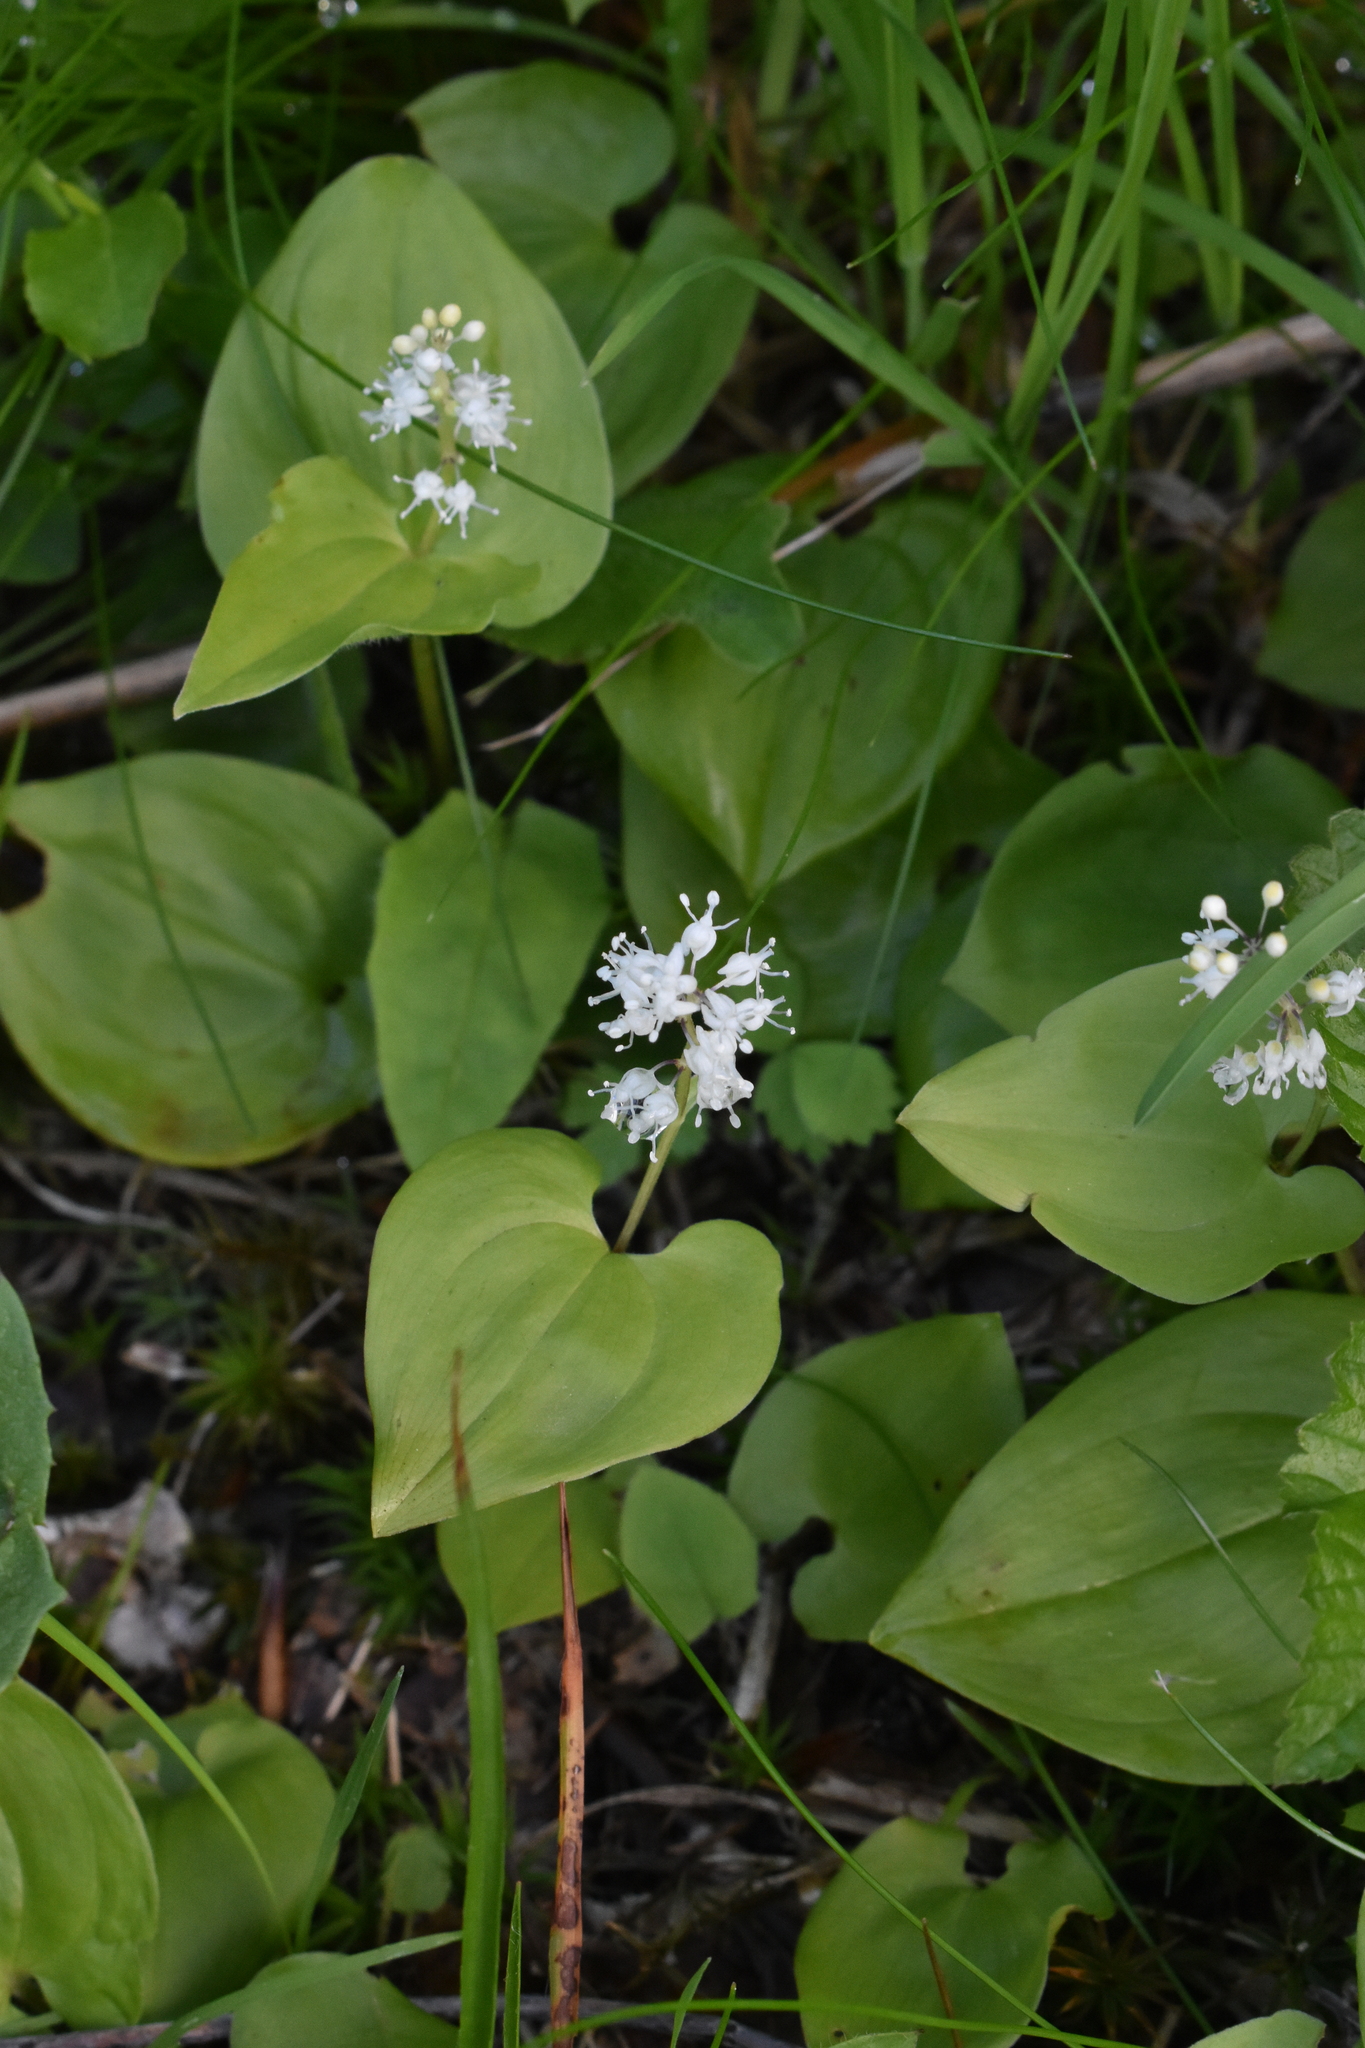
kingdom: Plantae
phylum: Tracheophyta
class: Liliopsida
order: Asparagales
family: Asparagaceae
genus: Maianthemum
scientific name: Maianthemum bifolium
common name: May lily
